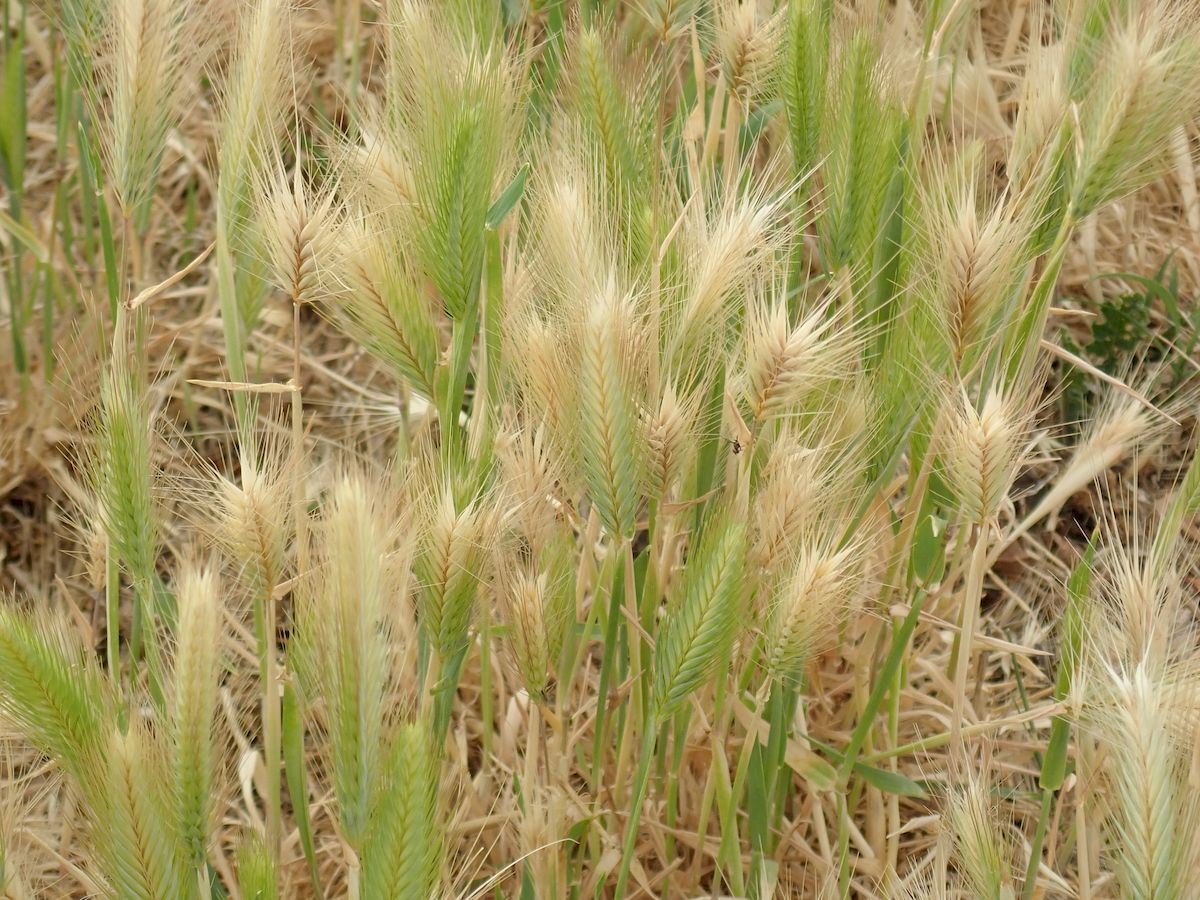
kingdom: Plantae
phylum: Tracheophyta
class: Liliopsida
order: Poales
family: Poaceae
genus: Hordeum
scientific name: Hordeum
